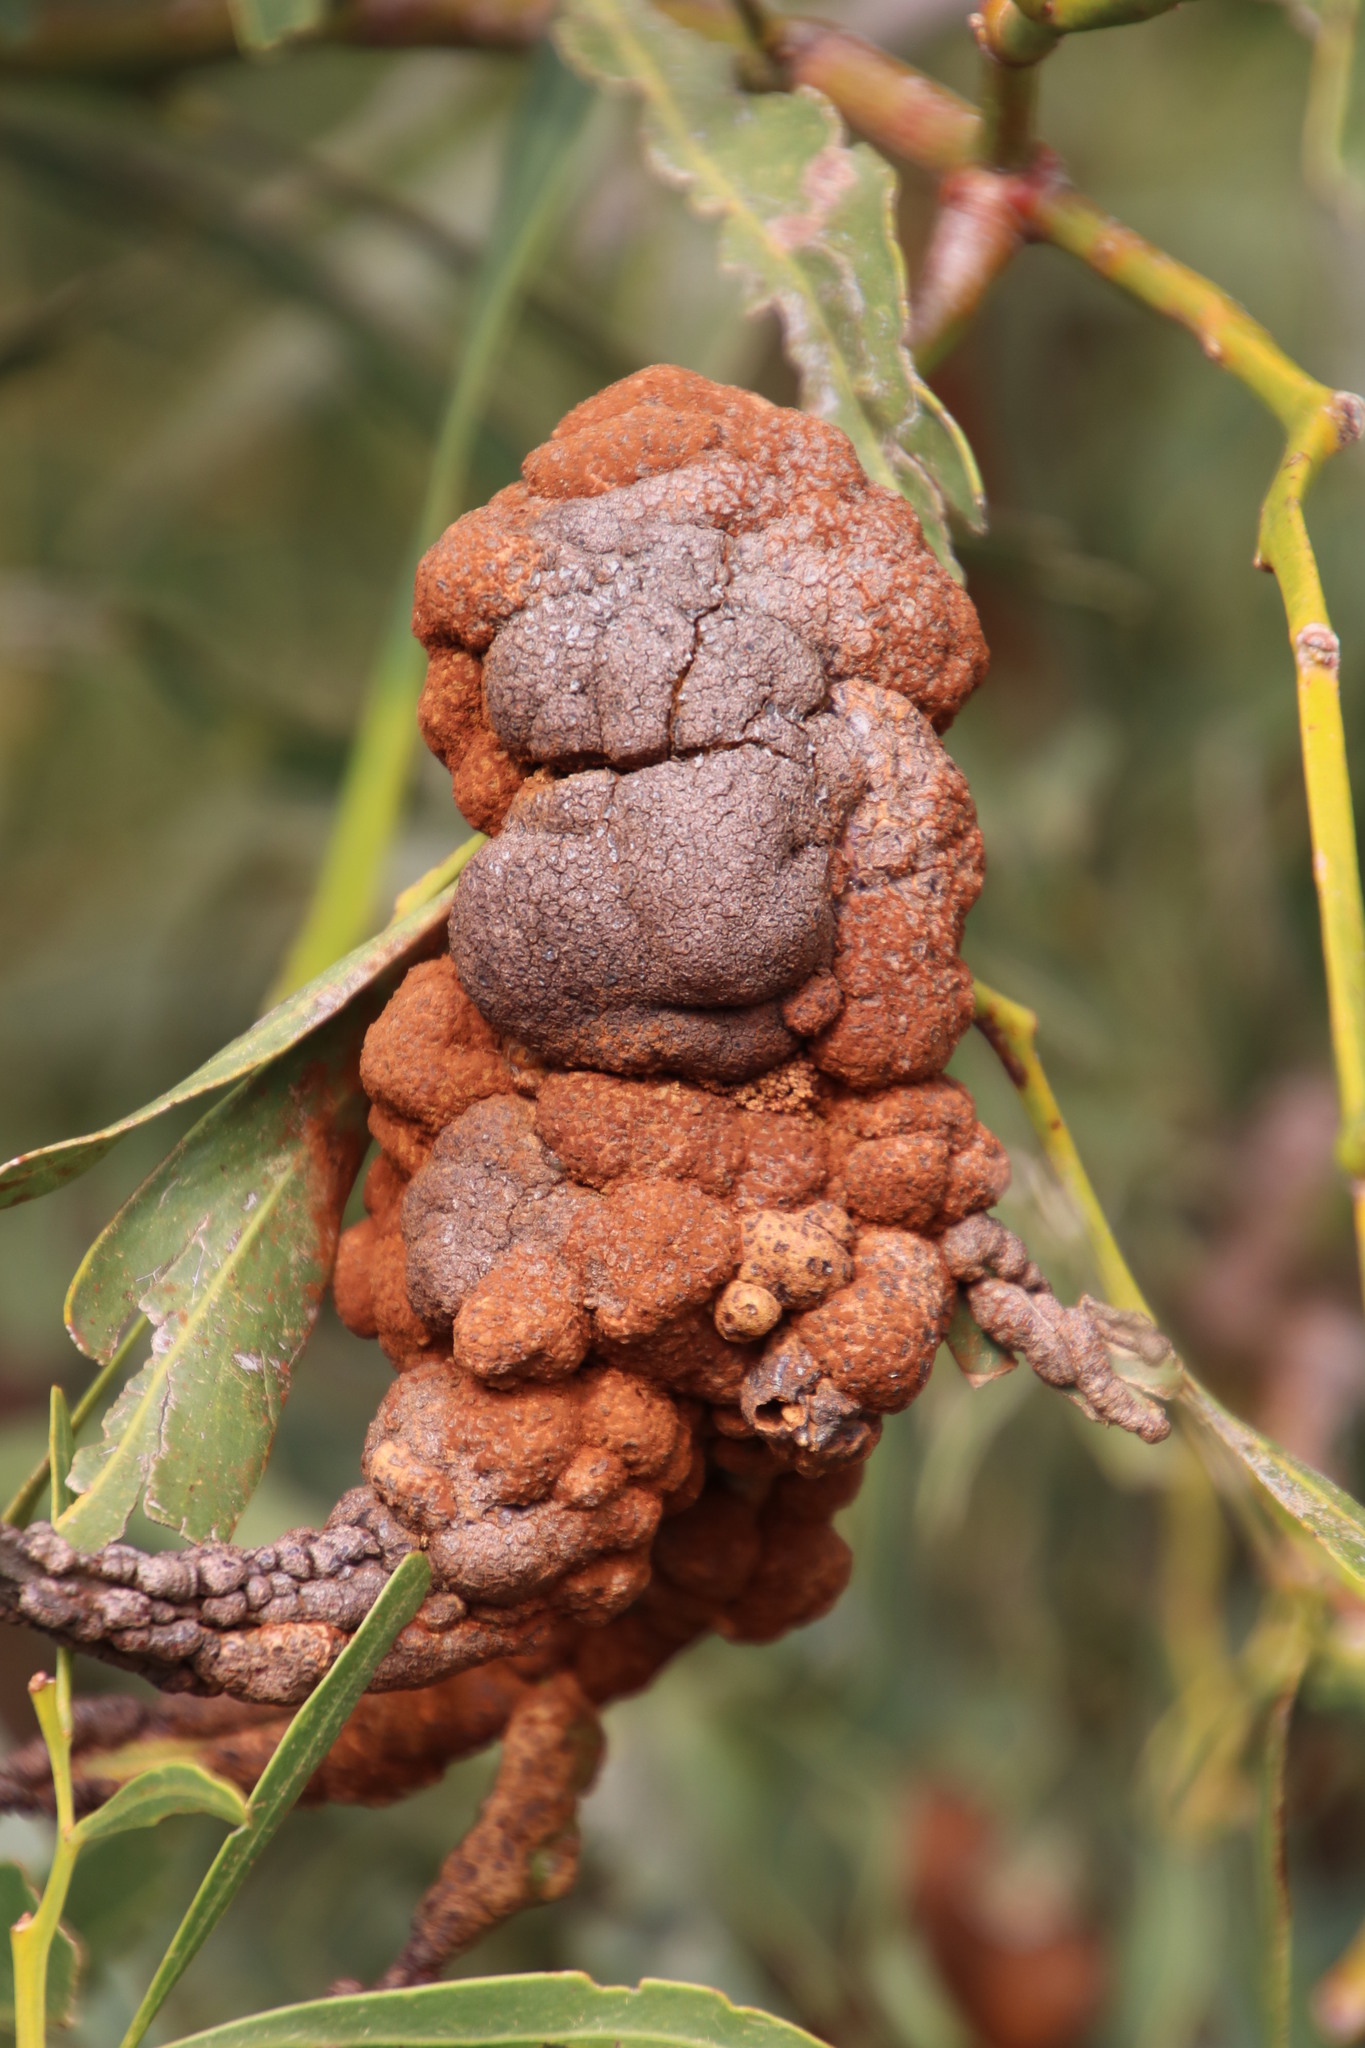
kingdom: Fungi
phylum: Basidiomycota
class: Pucciniomycetes
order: Pucciniales
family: Uromycladiaceae
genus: Uromycladium
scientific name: Uromycladium morrisii
